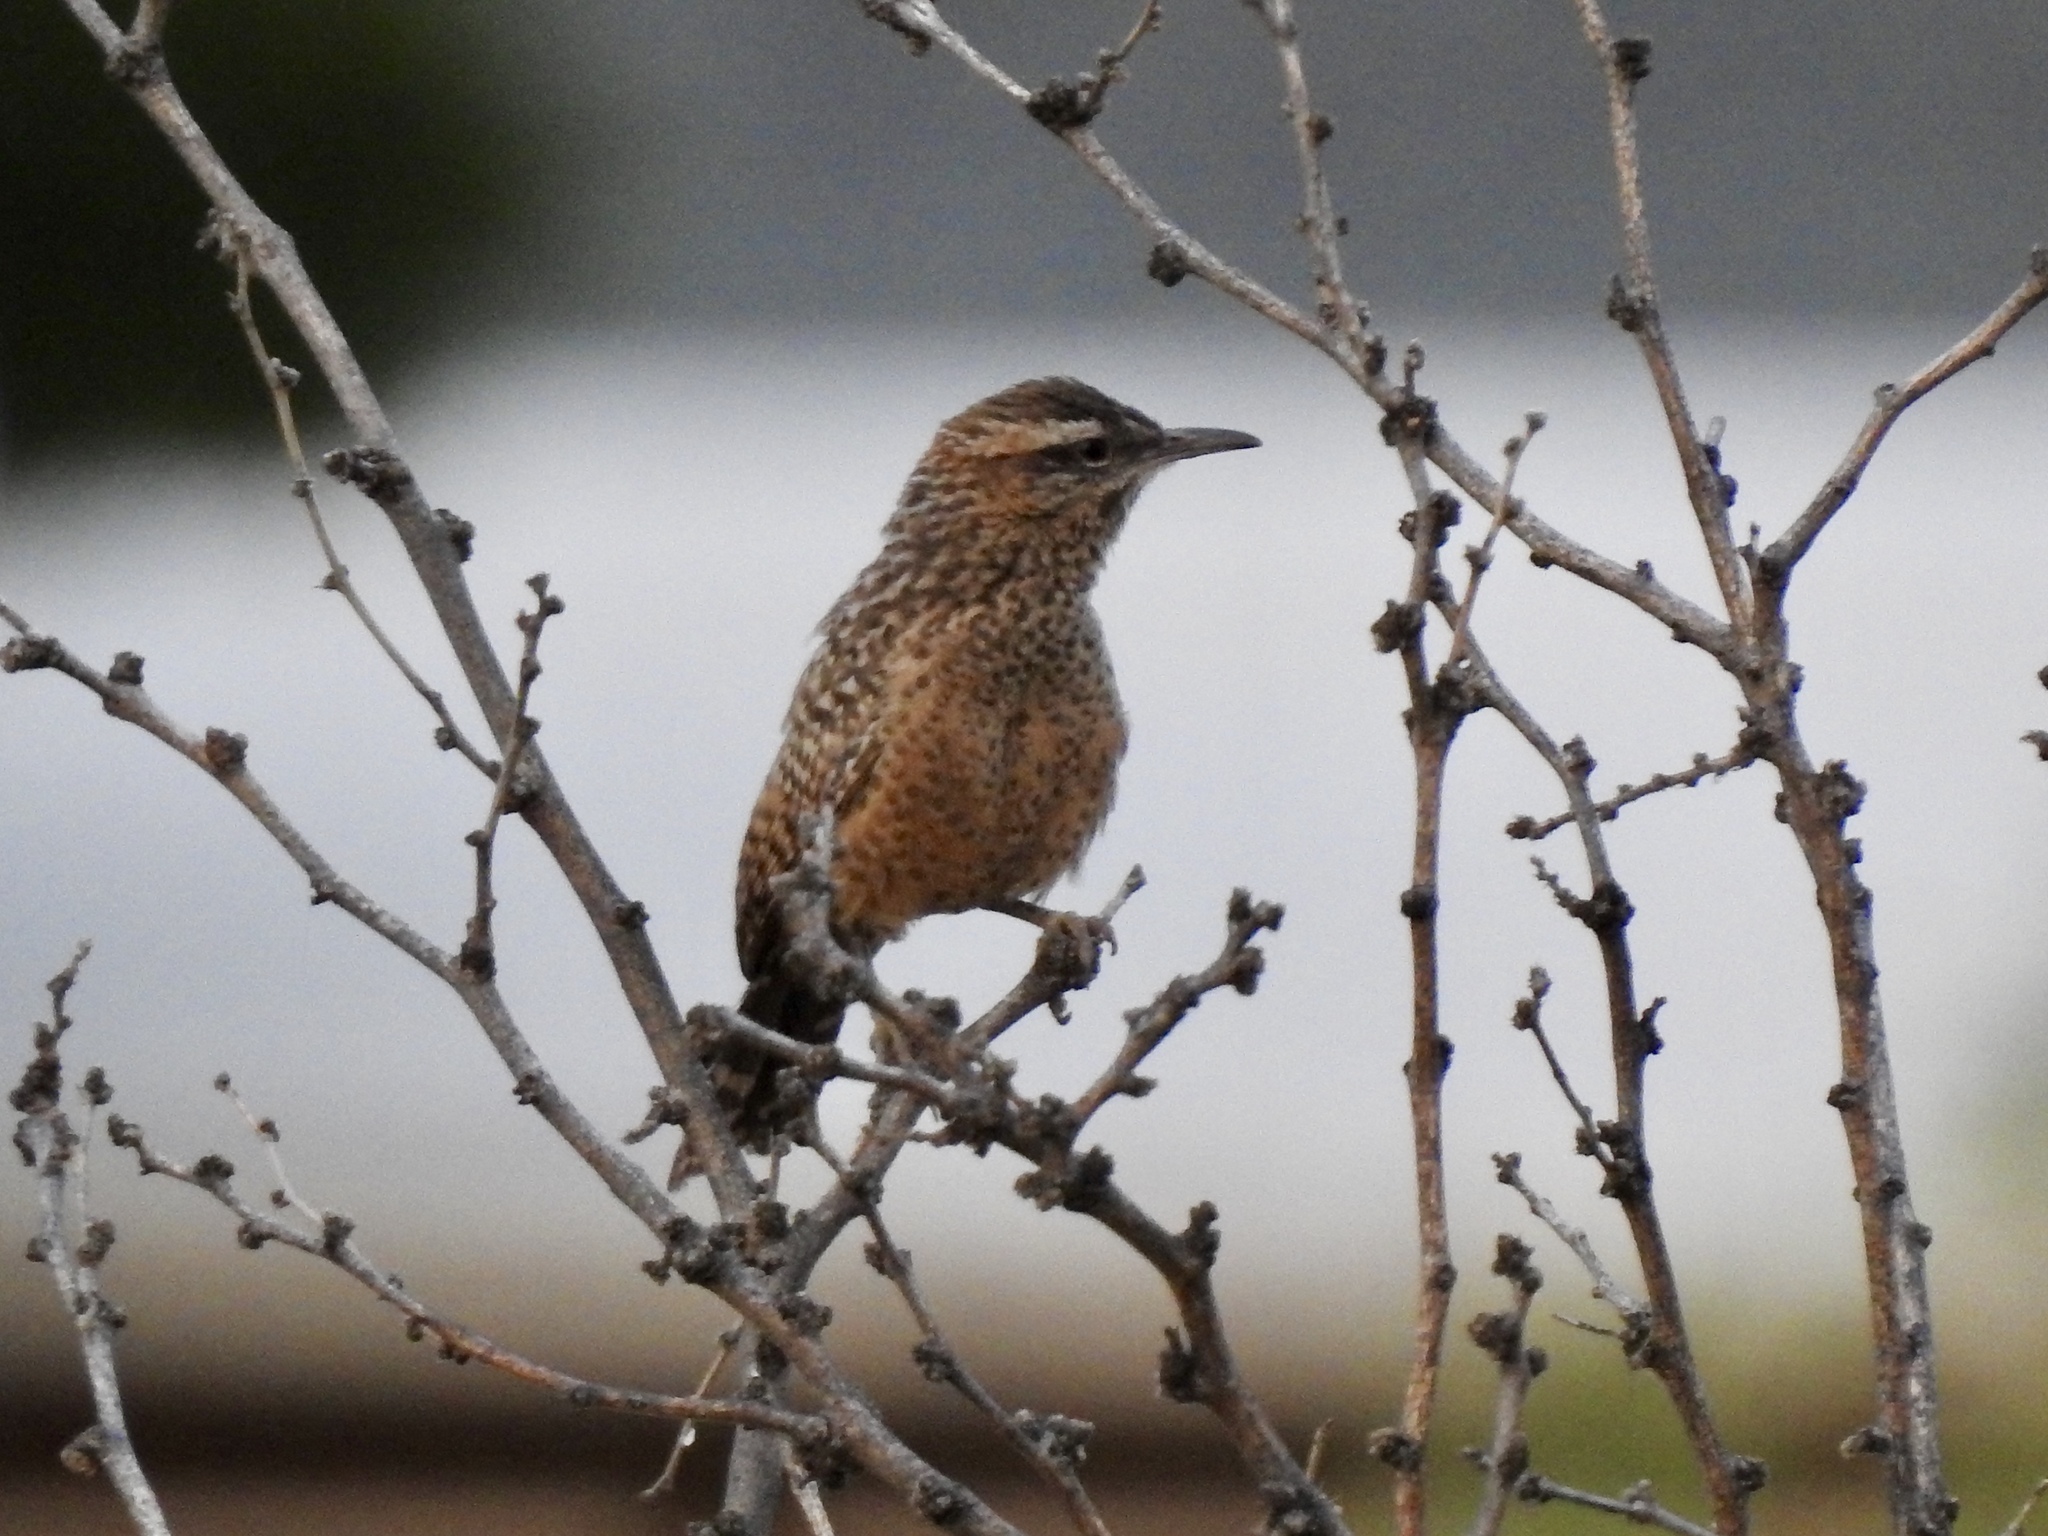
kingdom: Animalia
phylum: Chordata
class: Aves
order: Passeriformes
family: Troglodytidae
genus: Campylorhynchus
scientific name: Campylorhynchus brunneicapillus
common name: Cactus wren
